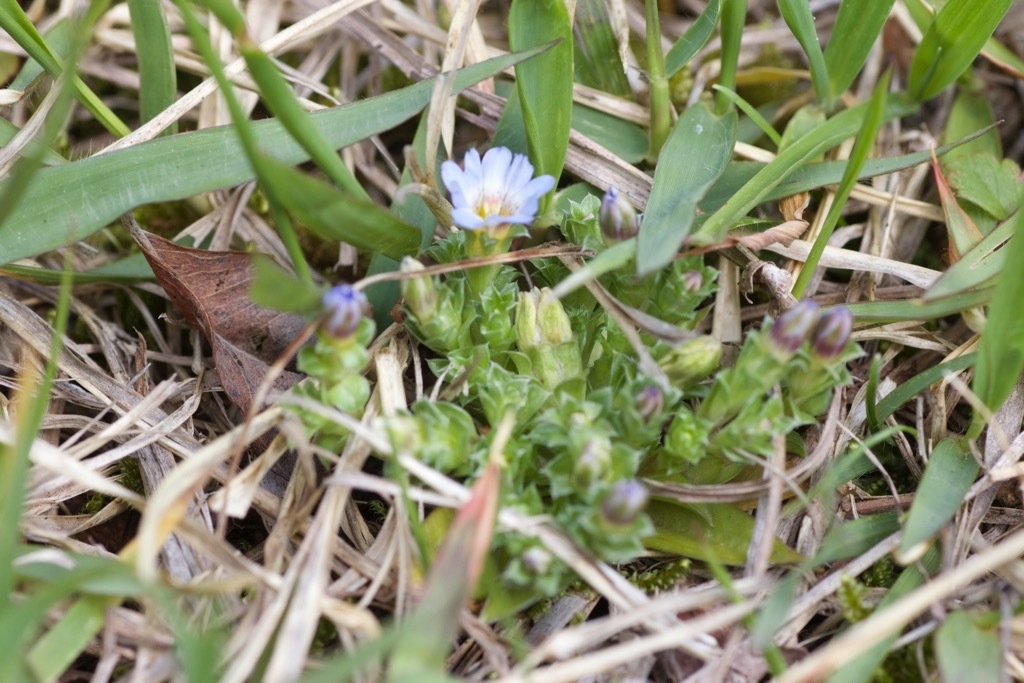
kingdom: Plantae
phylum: Tracheophyta
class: Magnoliopsida
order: Gentianales
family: Gentianaceae
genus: Gentiana
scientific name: Gentiana squarrosa
